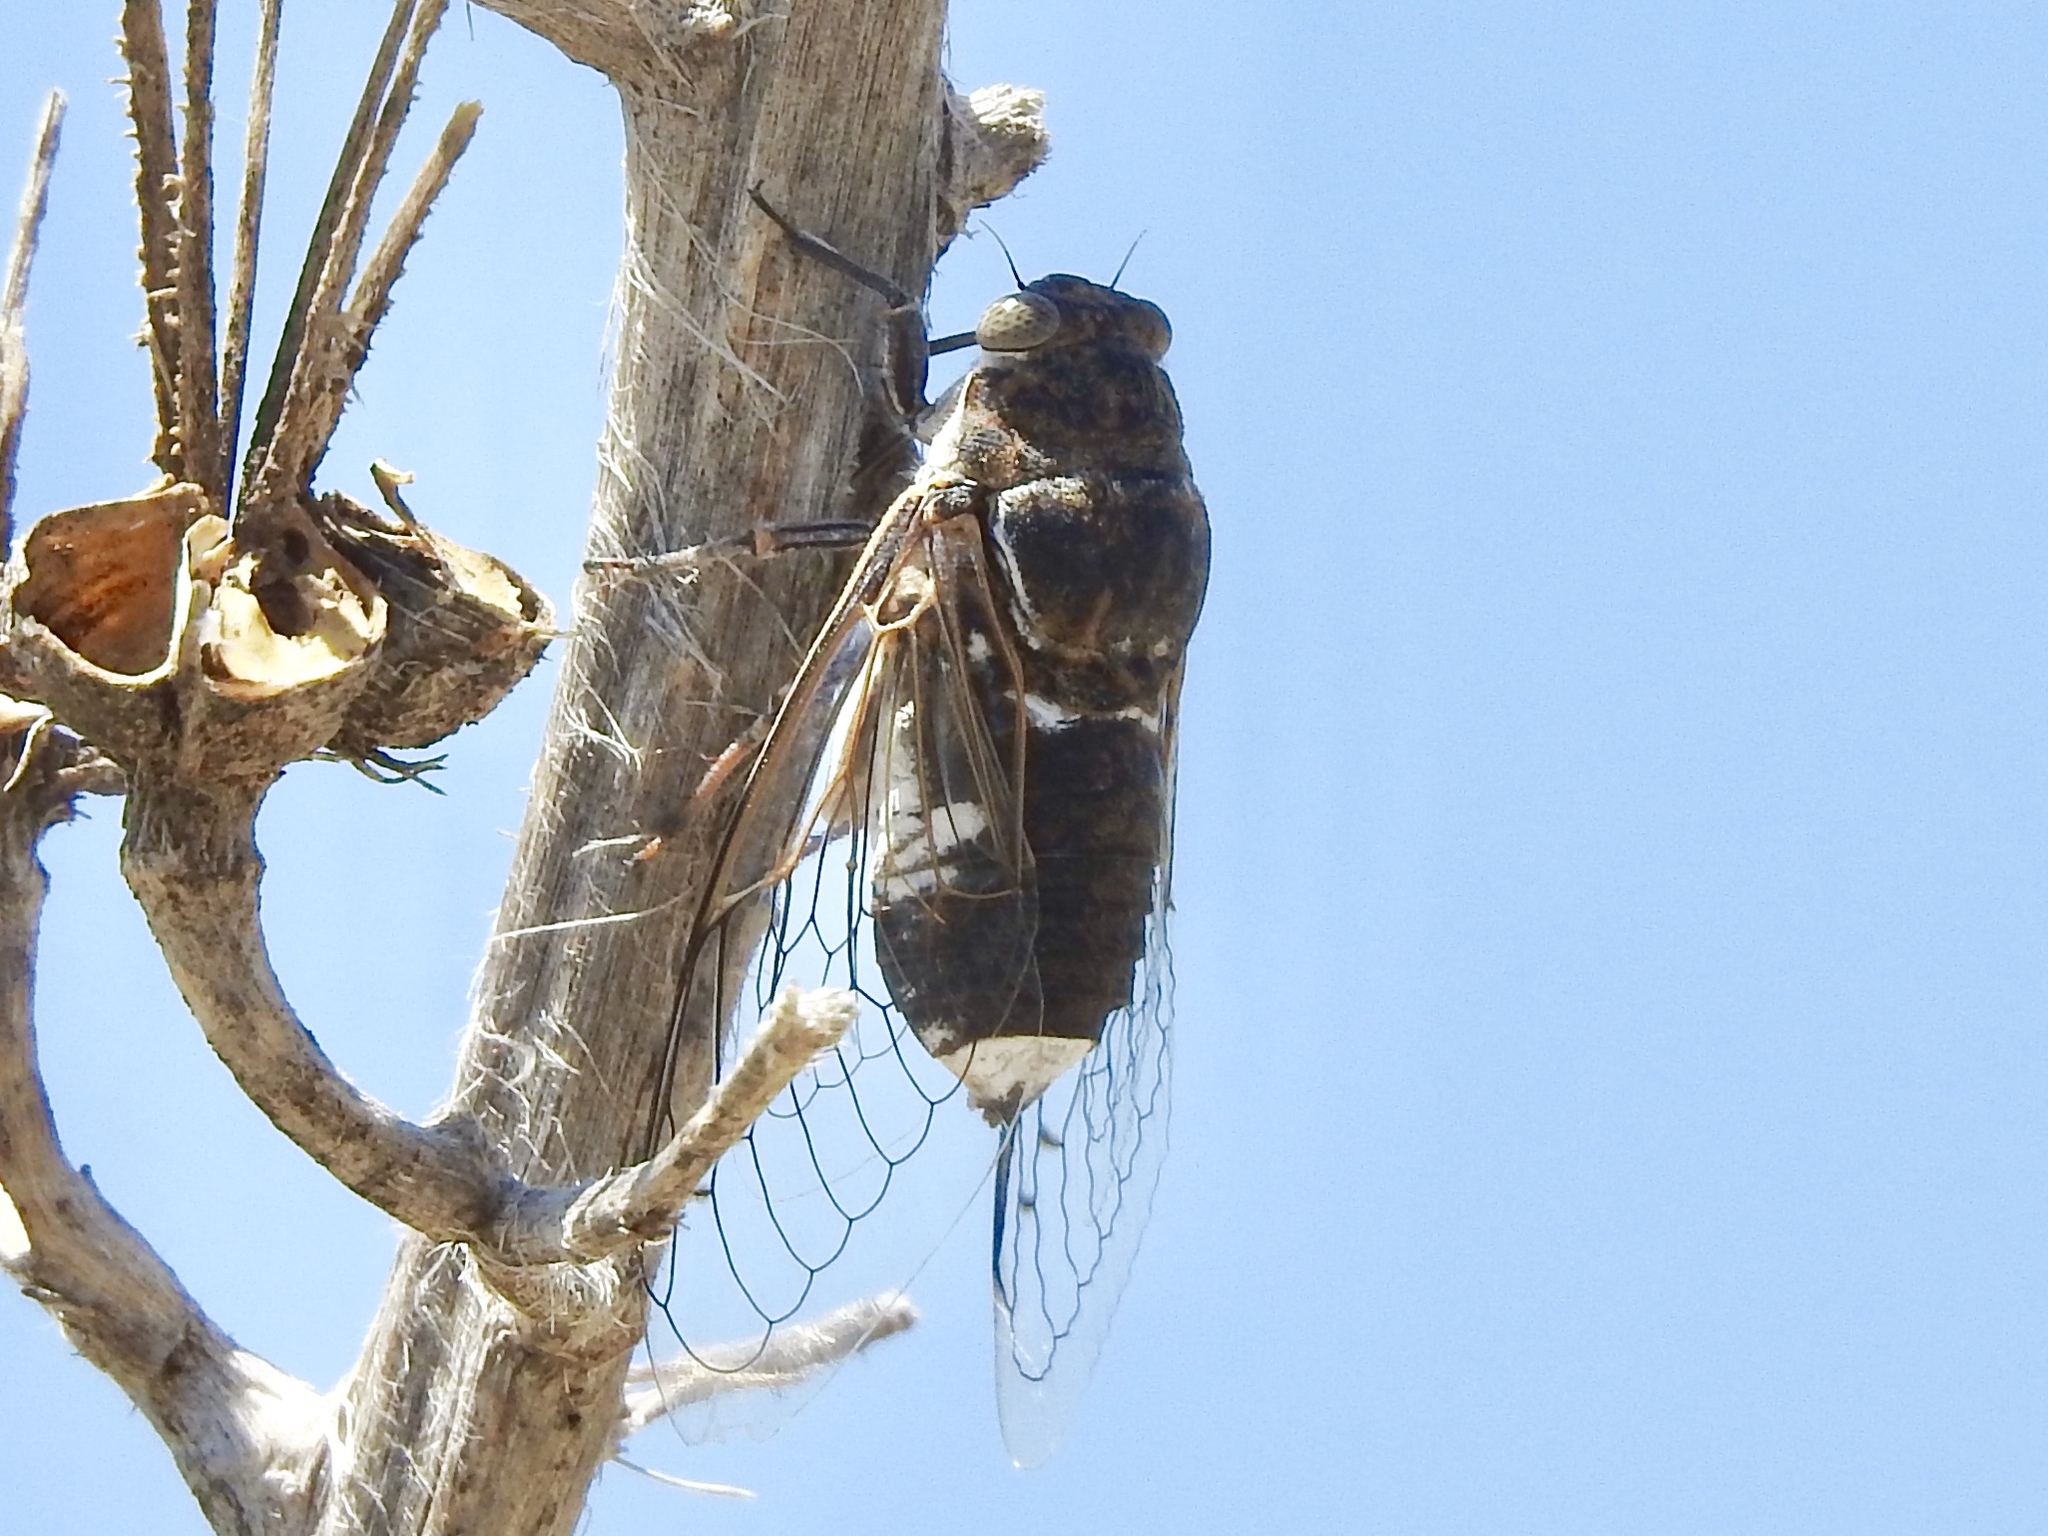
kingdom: Animalia
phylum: Arthropoda
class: Insecta
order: Hemiptera
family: Cicadidae
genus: Hadoa
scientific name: Hadoa townsendii
